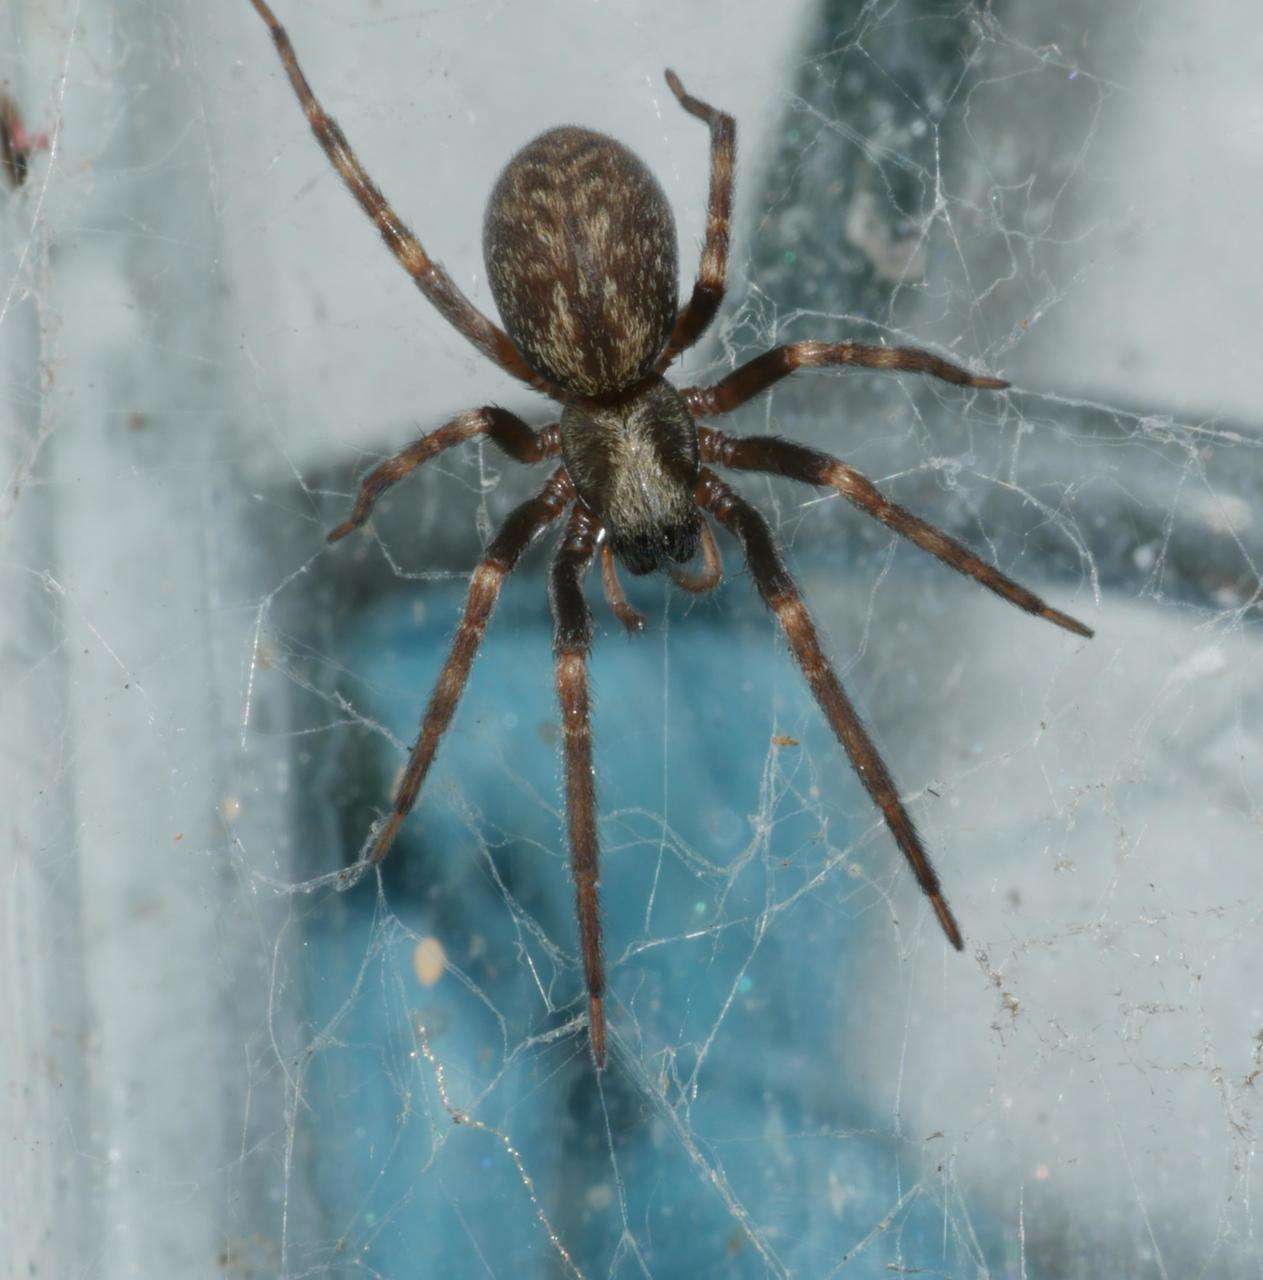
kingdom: Animalia
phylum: Arthropoda
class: Arachnida
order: Araneae
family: Desidae
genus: Badumna
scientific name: Badumna longinqua
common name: Gray house spider
